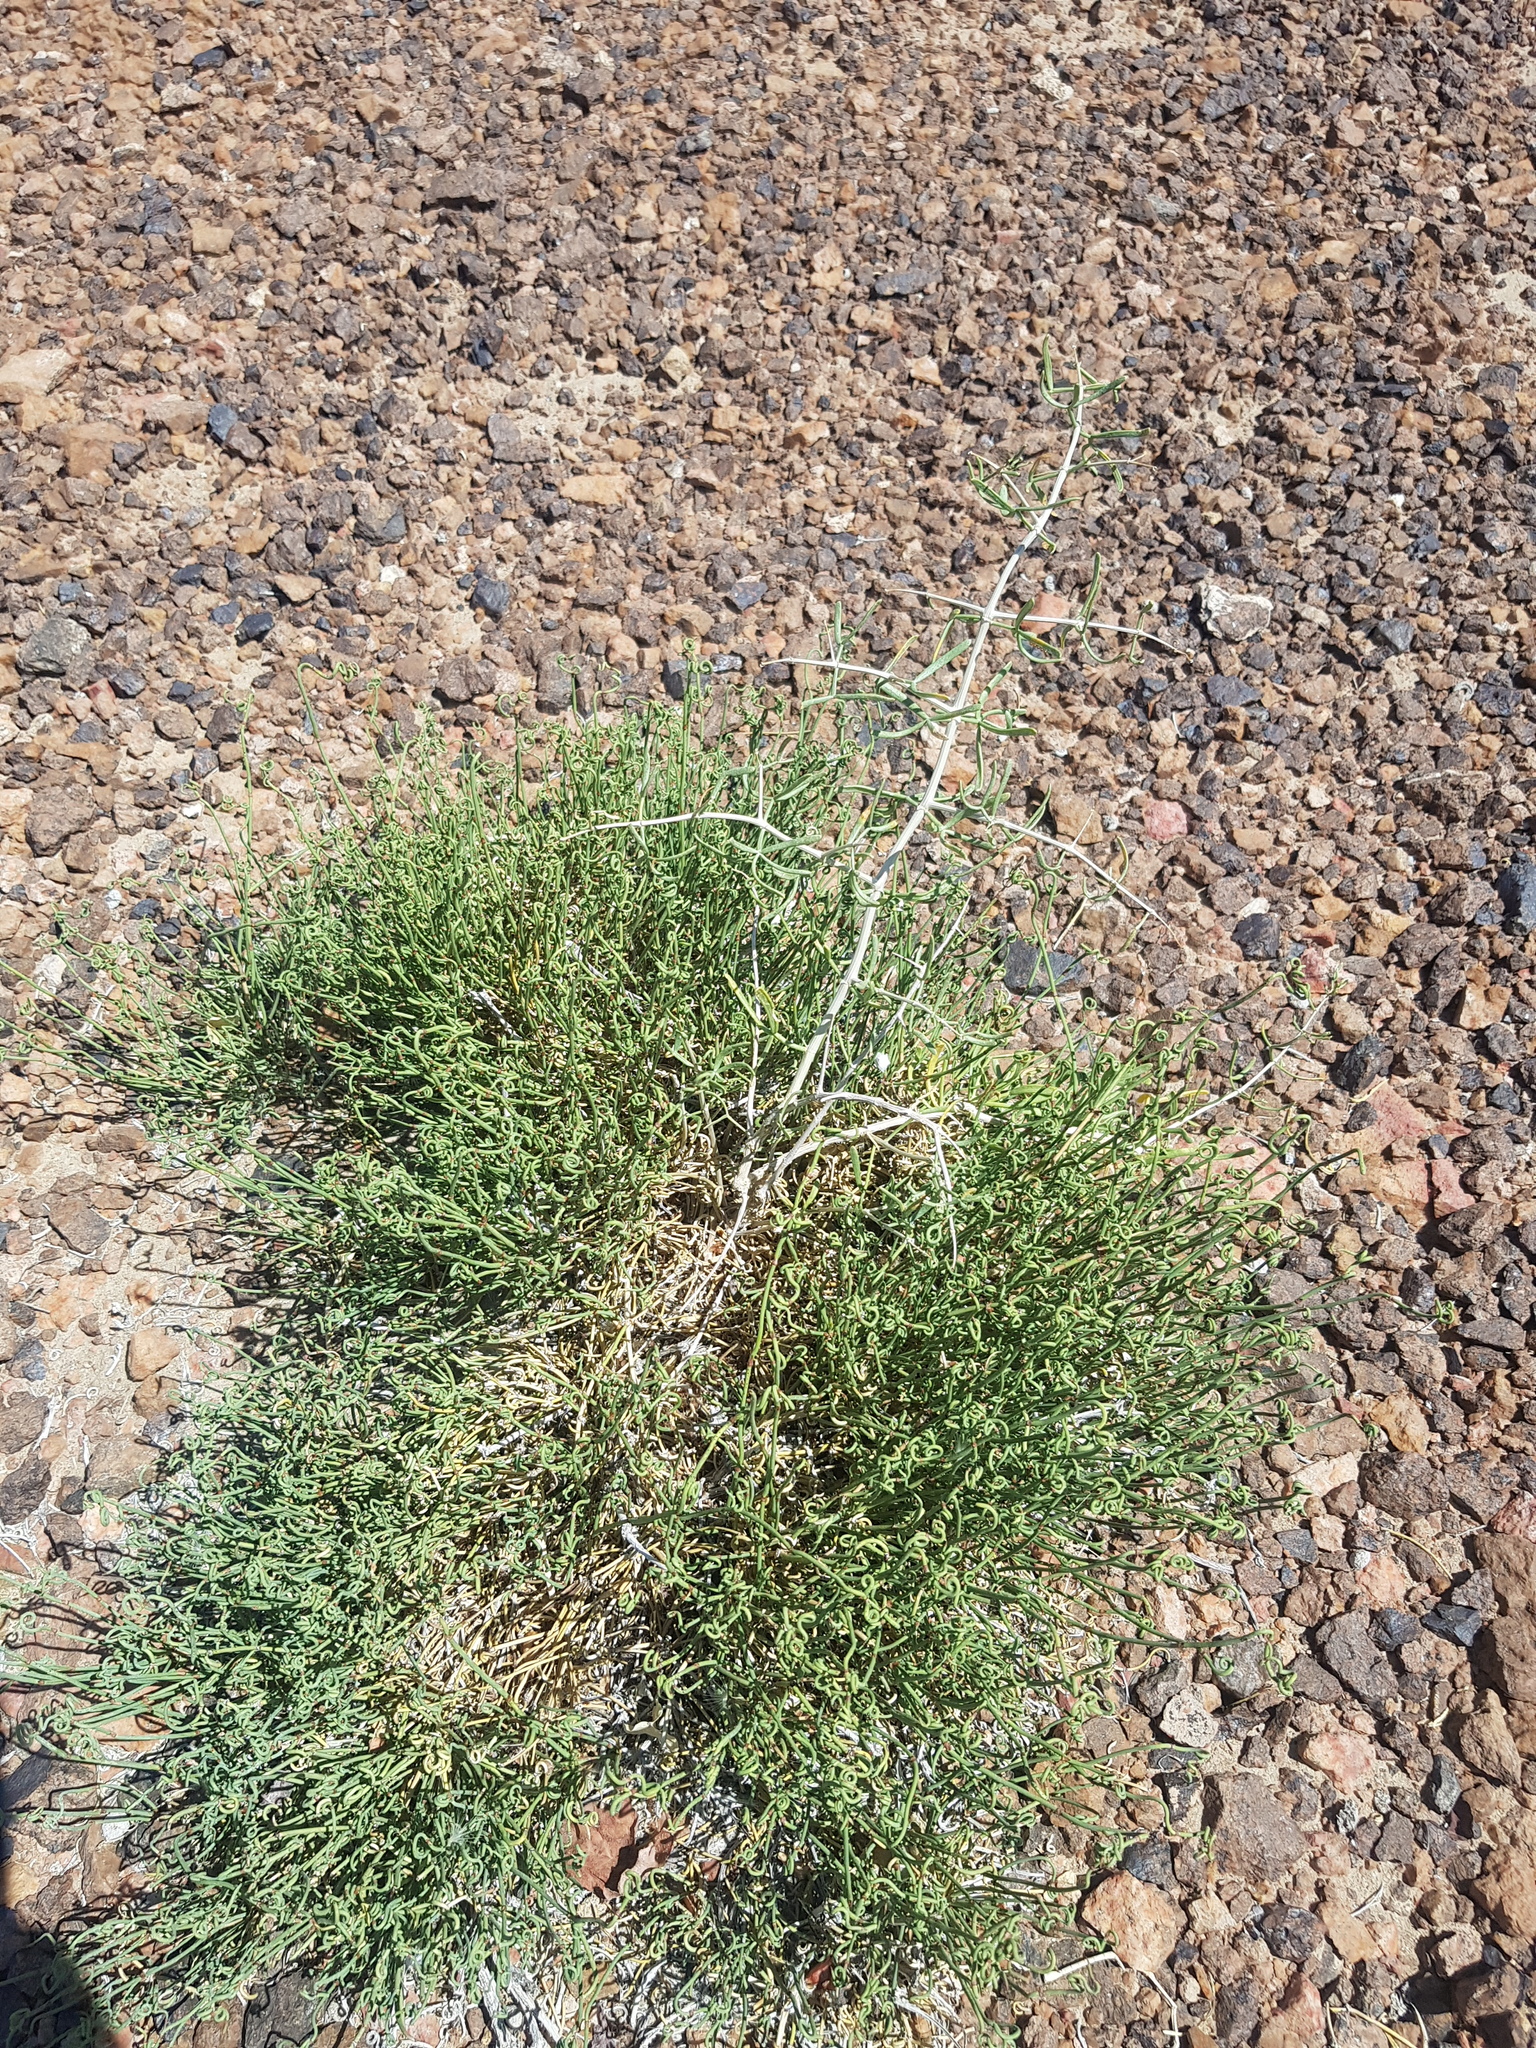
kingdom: Plantae
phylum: Tracheophyta
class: Gnetopsida
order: Ephedrales
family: Ephedraceae
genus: Ephedra
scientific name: Ephedra przewalskii
